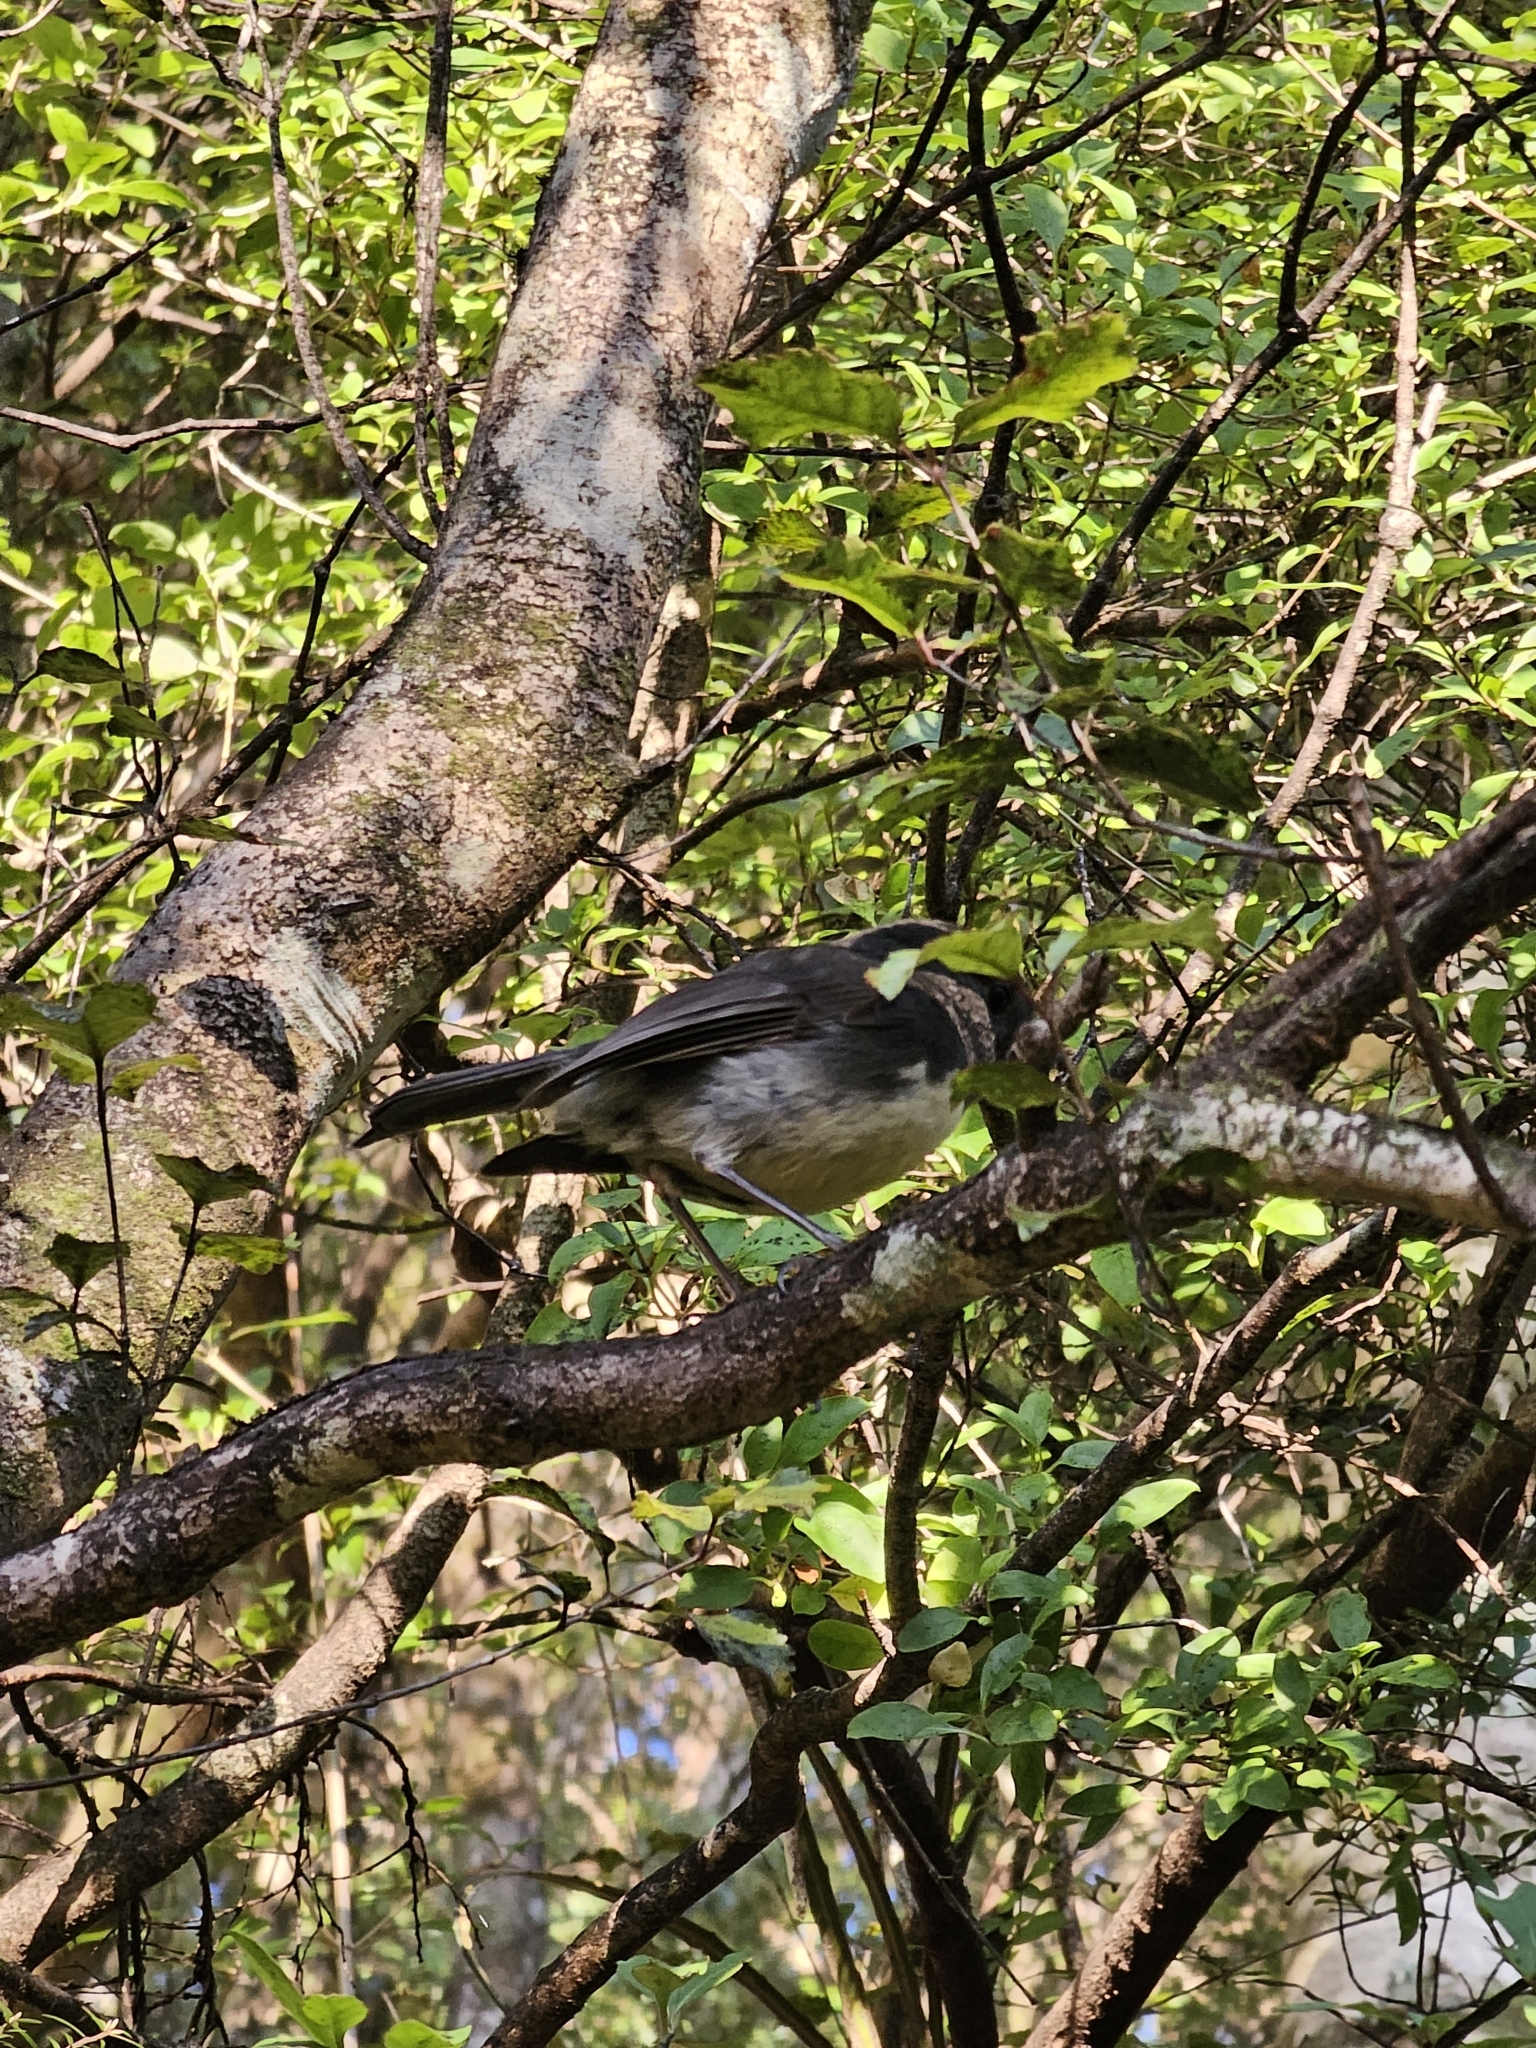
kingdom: Animalia
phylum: Chordata
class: Aves
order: Passeriformes
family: Petroicidae
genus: Petroica
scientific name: Petroica australis
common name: New zealand robin
